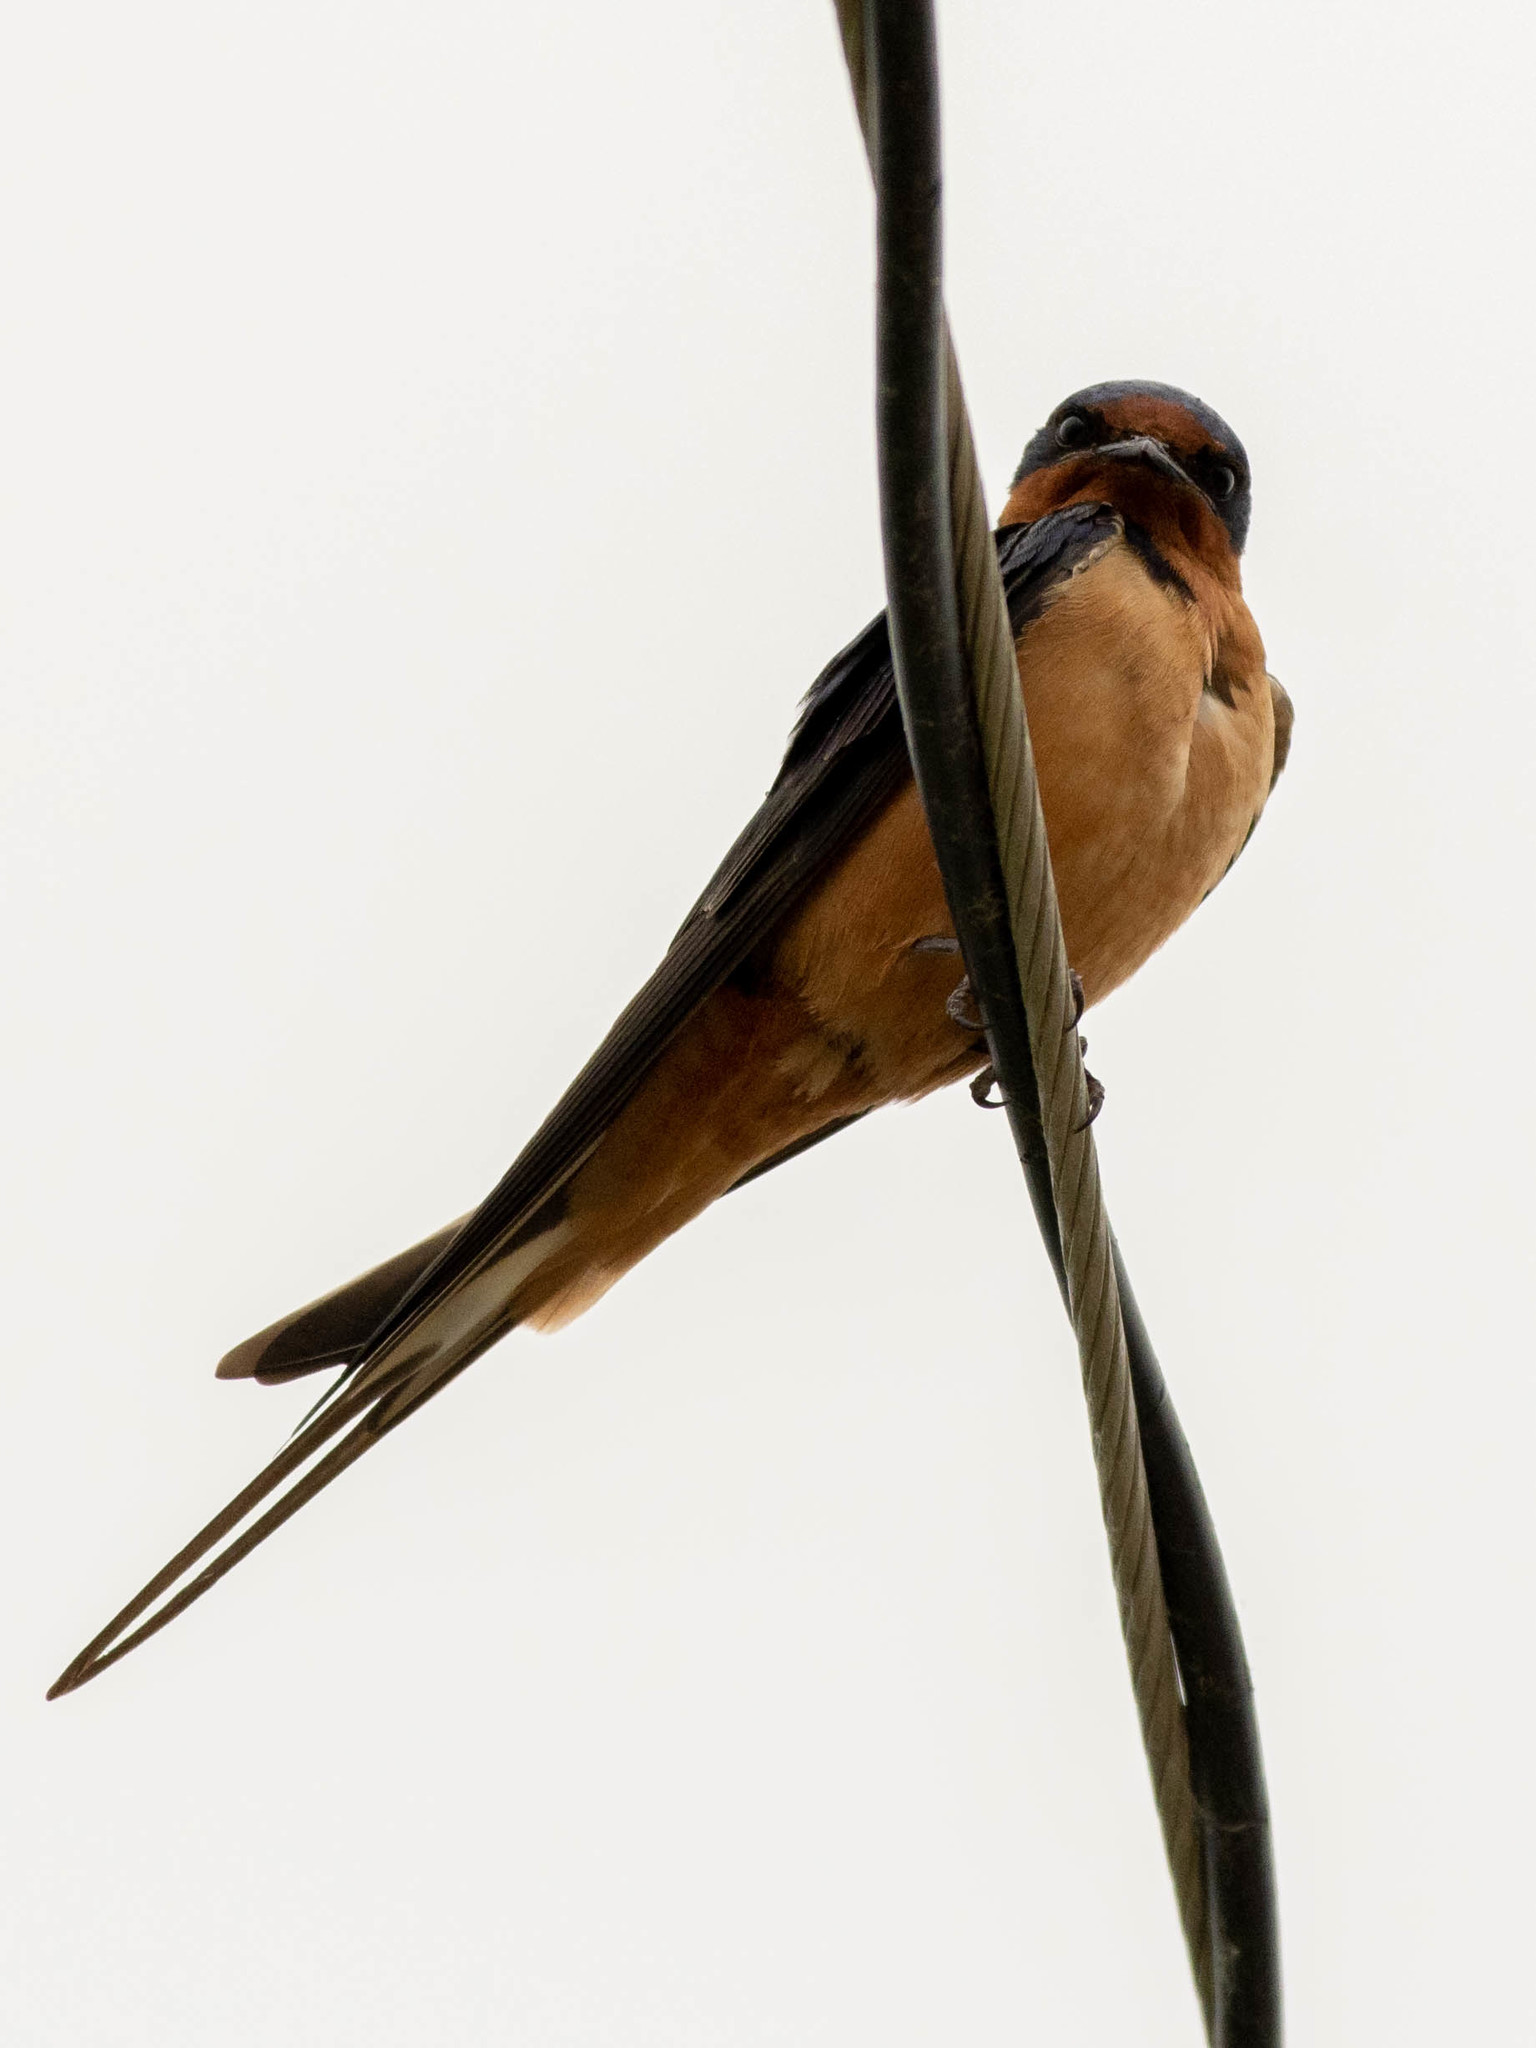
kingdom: Animalia
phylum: Chordata
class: Aves
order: Passeriformes
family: Hirundinidae
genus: Hirundo
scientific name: Hirundo rustica
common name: Barn swallow
